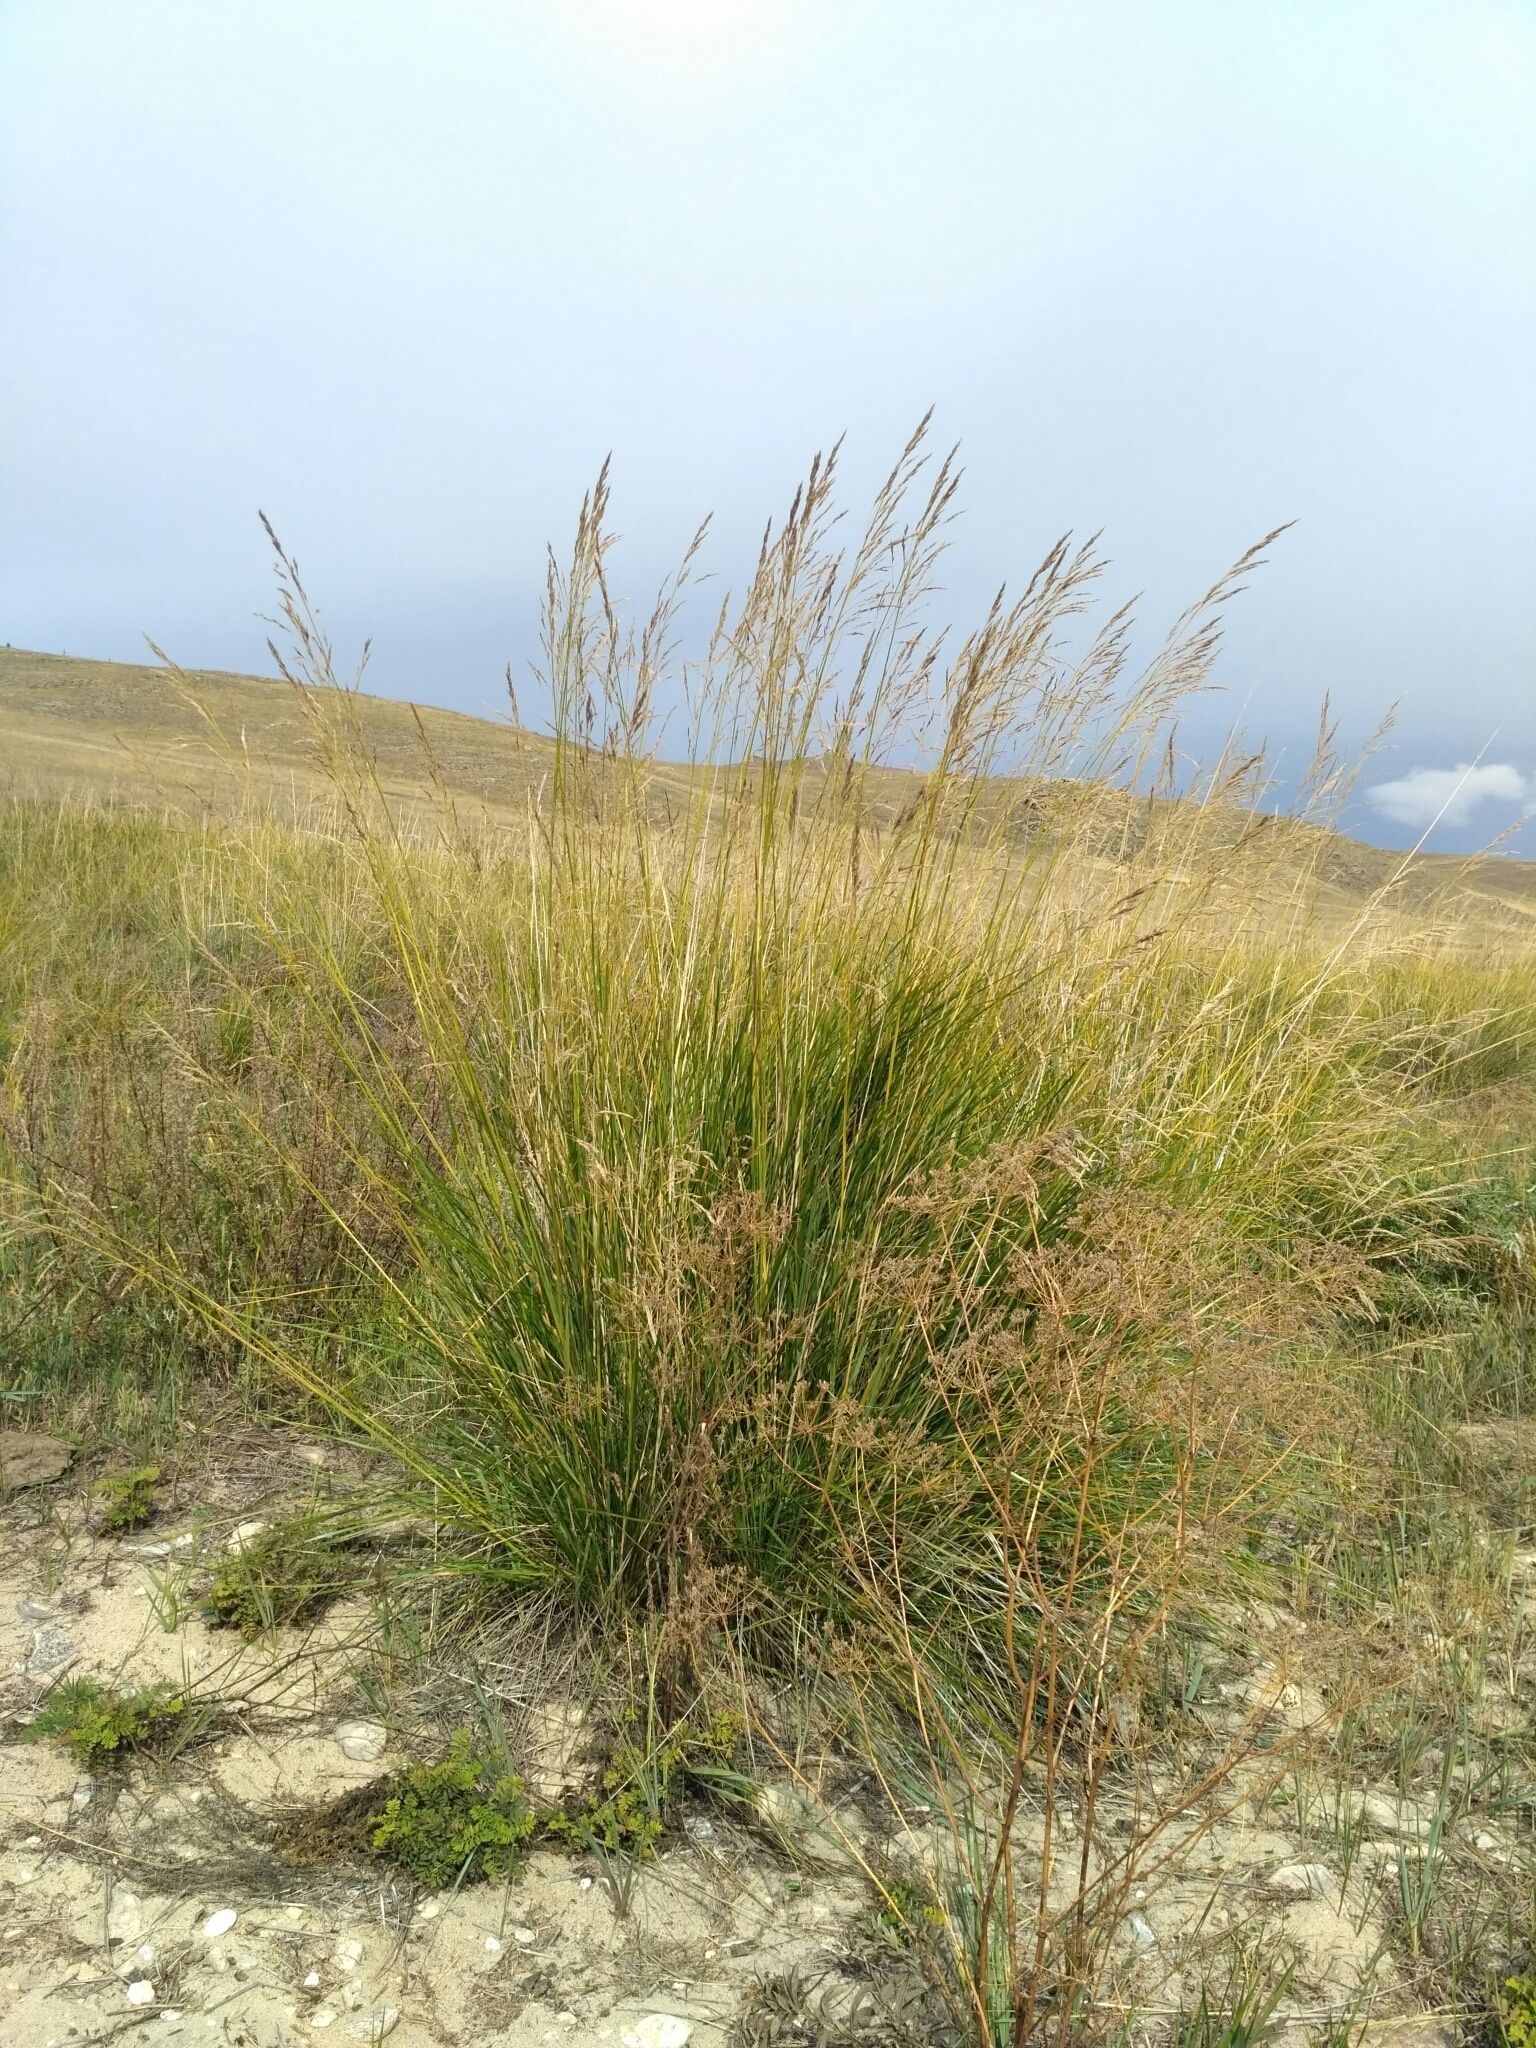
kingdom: Plantae
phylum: Tracheophyta
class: Liliopsida
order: Poales
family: Poaceae
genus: Neotrinia
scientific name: Neotrinia splendens
